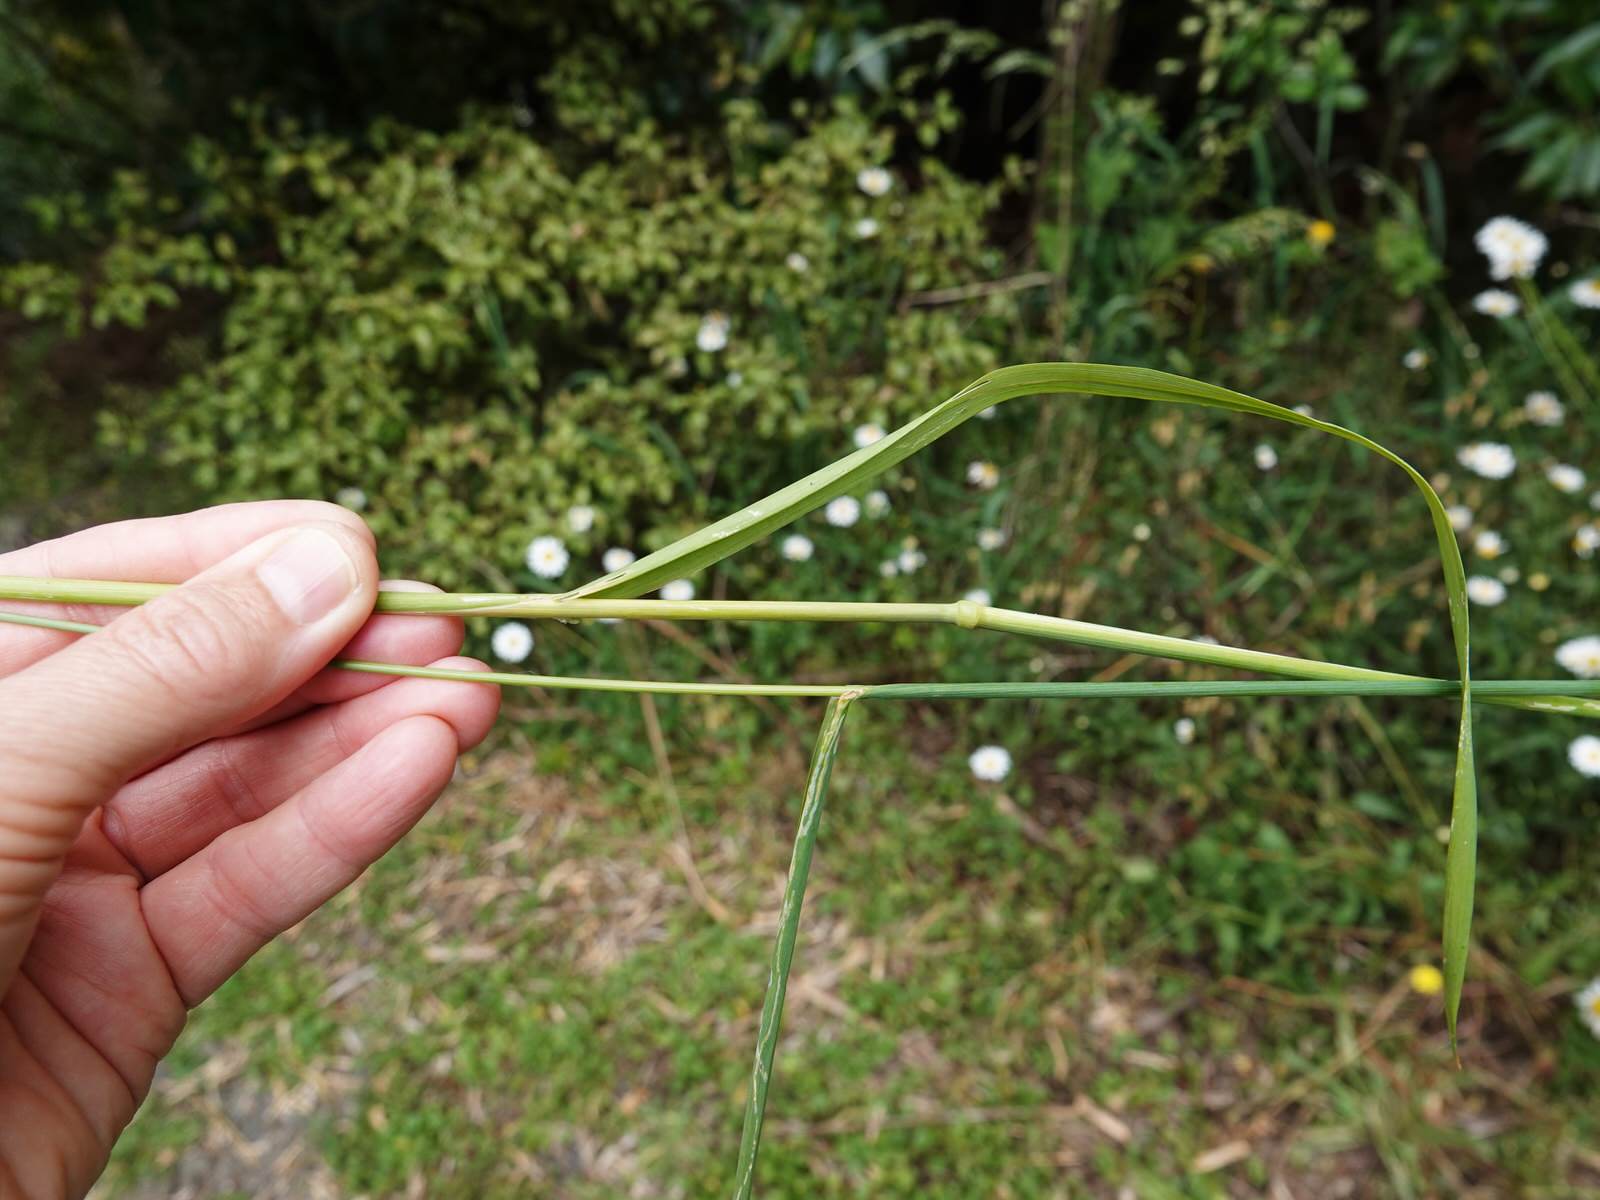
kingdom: Plantae
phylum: Tracheophyta
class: Liliopsida
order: Poales
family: Poaceae
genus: Briza
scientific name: Briza maxima
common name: Big quakinggrass
